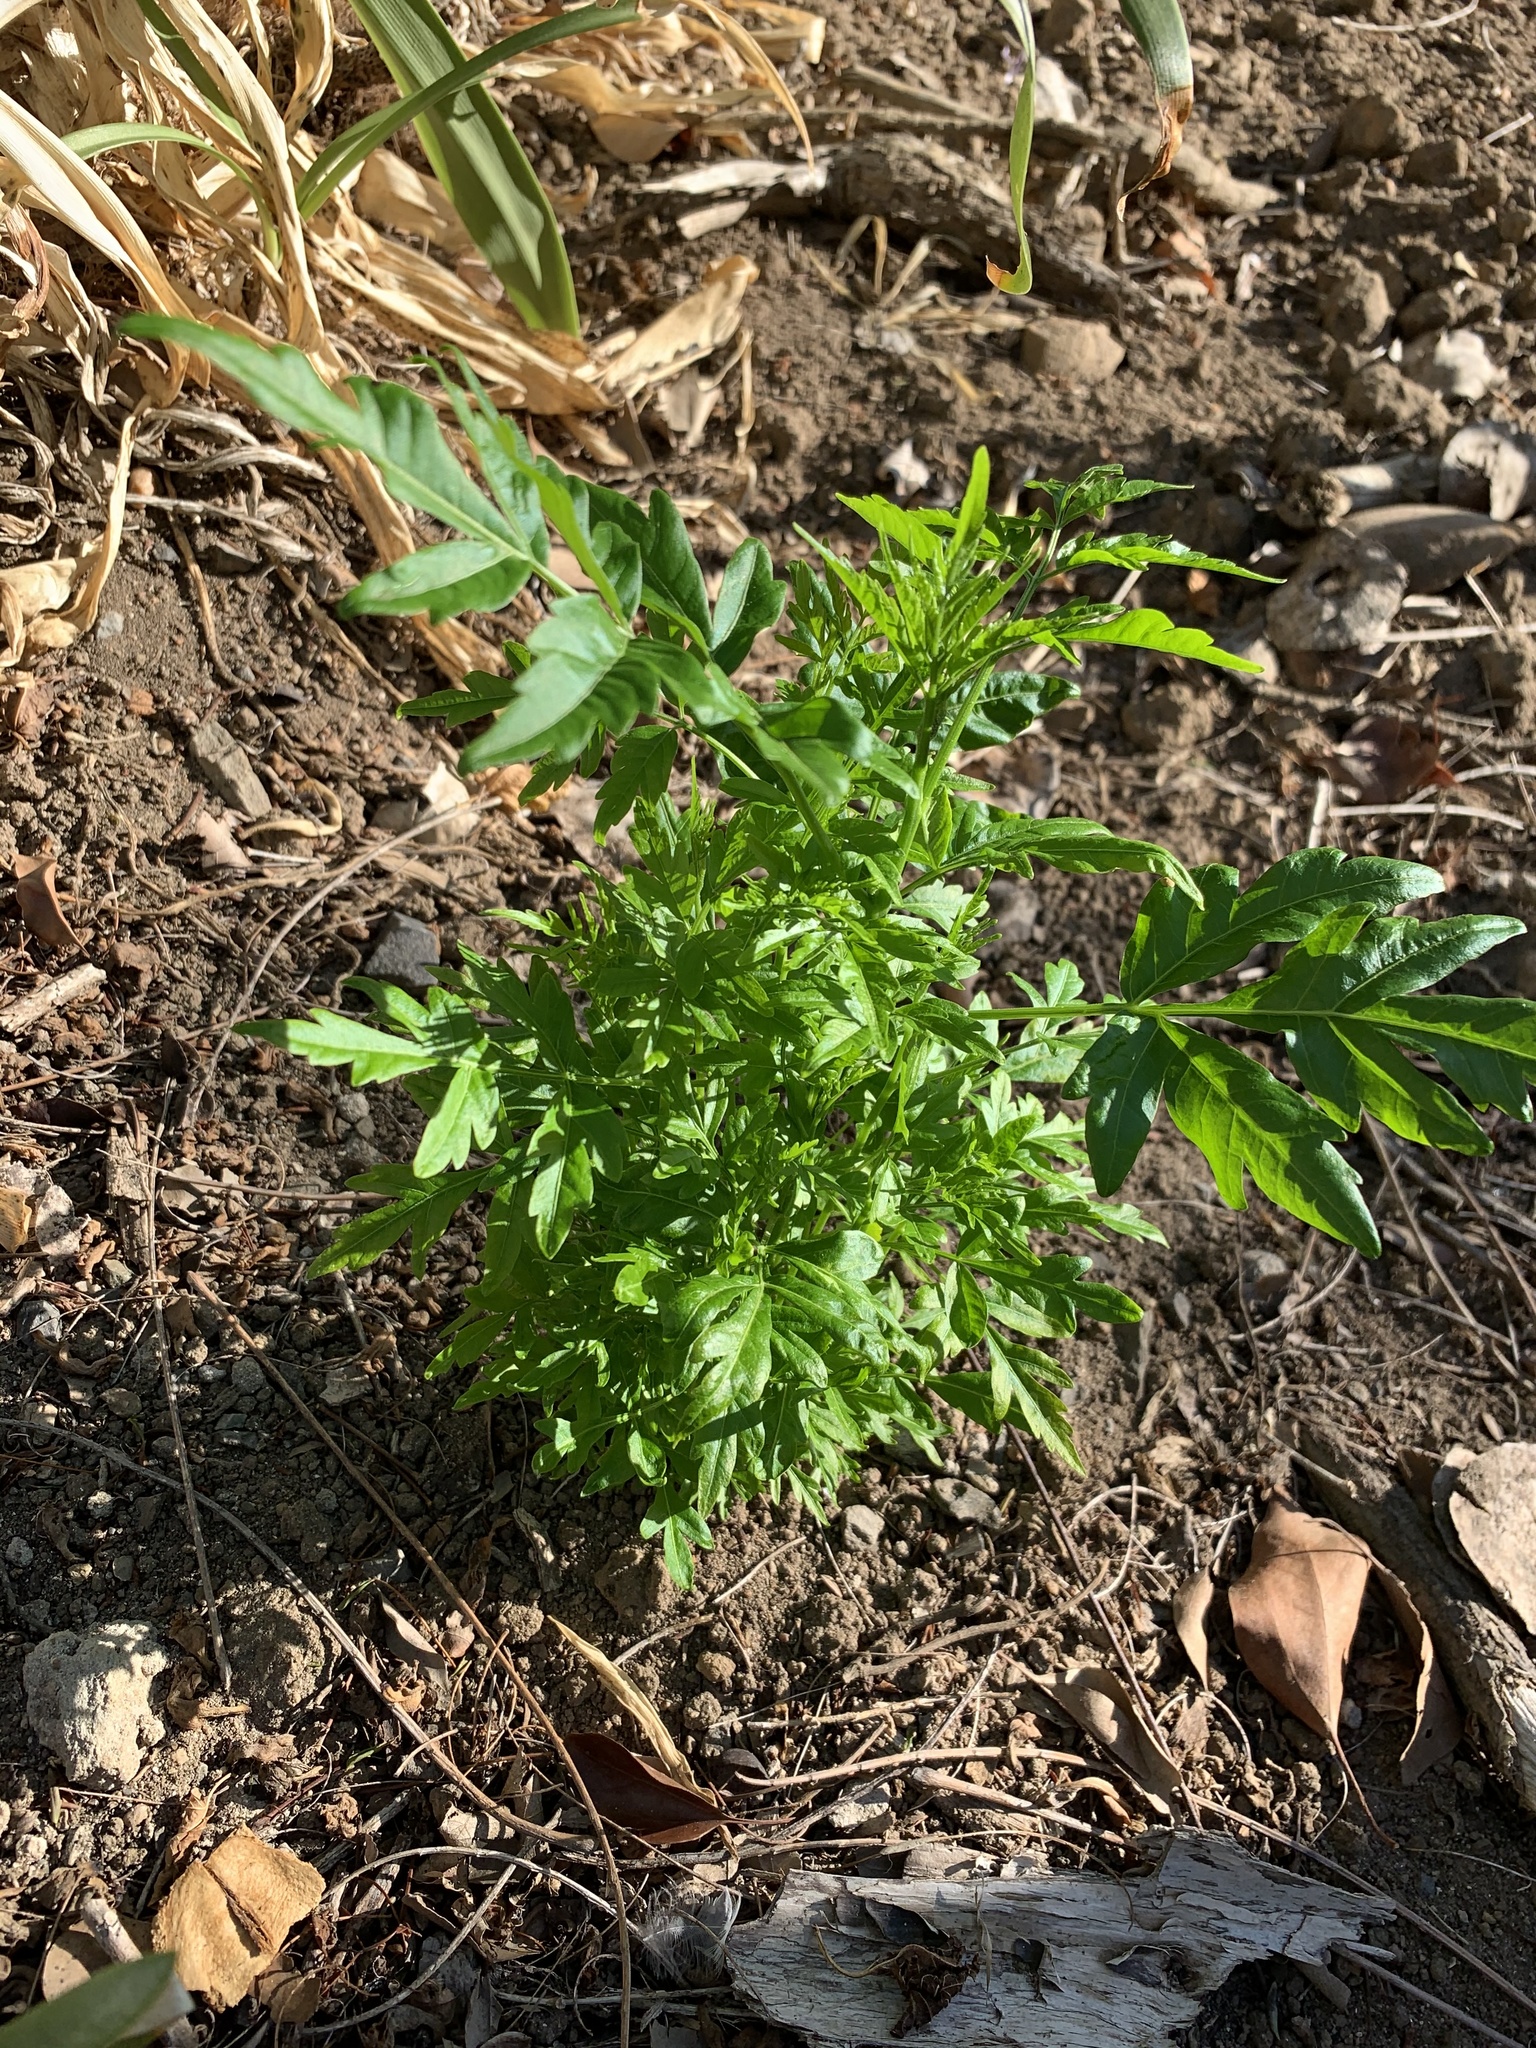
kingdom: Plantae
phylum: Tracheophyta
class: Magnoliopsida
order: Sapindales
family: Meliaceae
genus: Melia
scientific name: Melia azedarach
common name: Chinaberrytree
